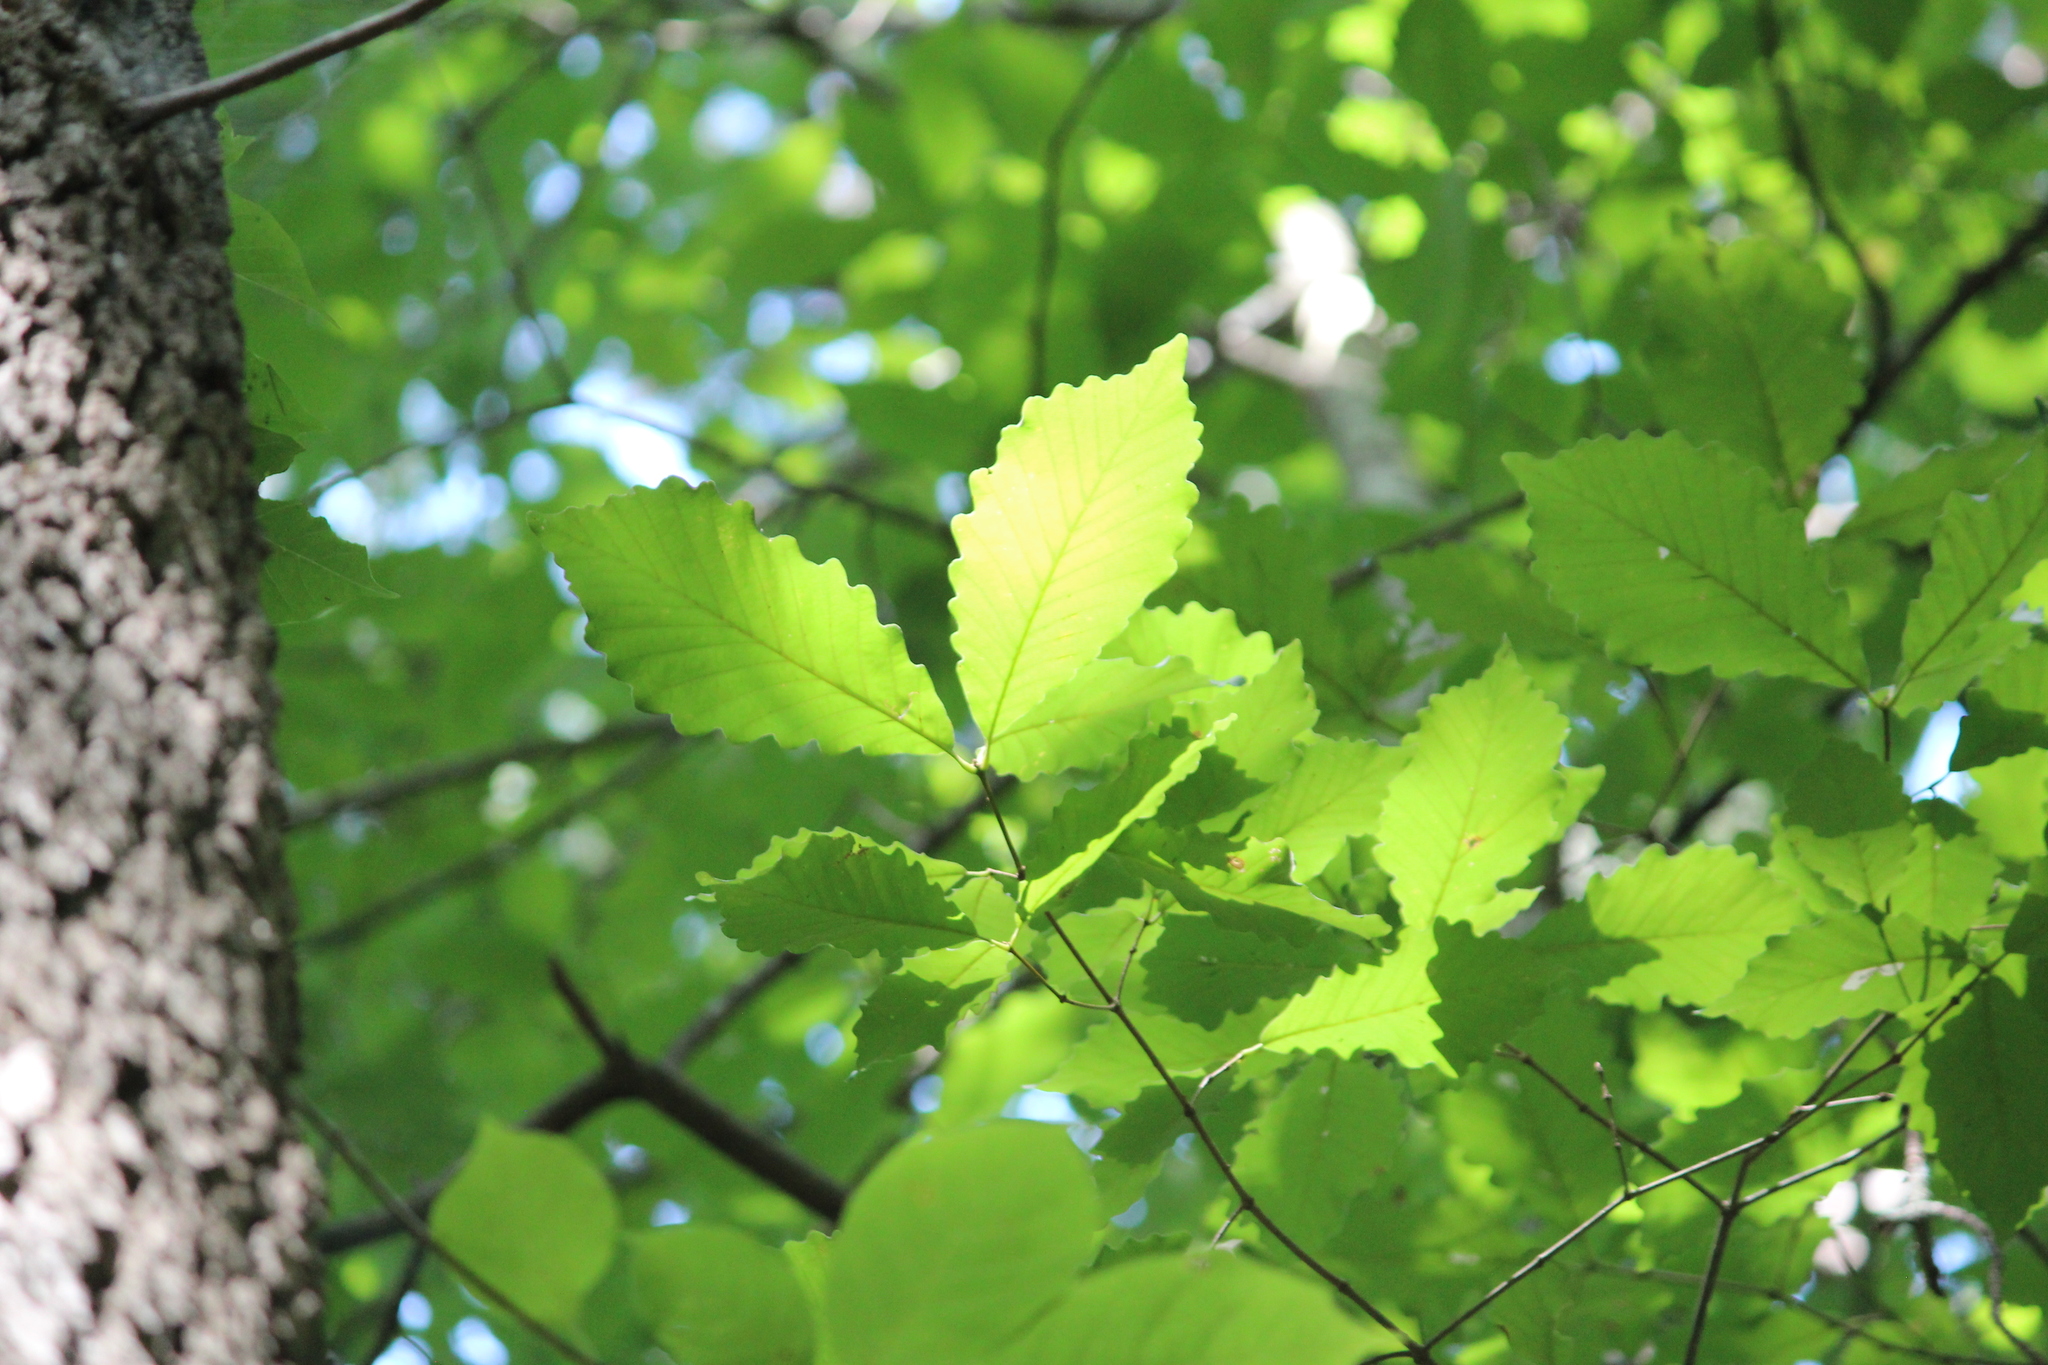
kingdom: Plantae
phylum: Tracheophyta
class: Magnoliopsida
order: Fagales
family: Fagaceae
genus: Quercus
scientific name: Quercus montana
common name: Chestnut oak
